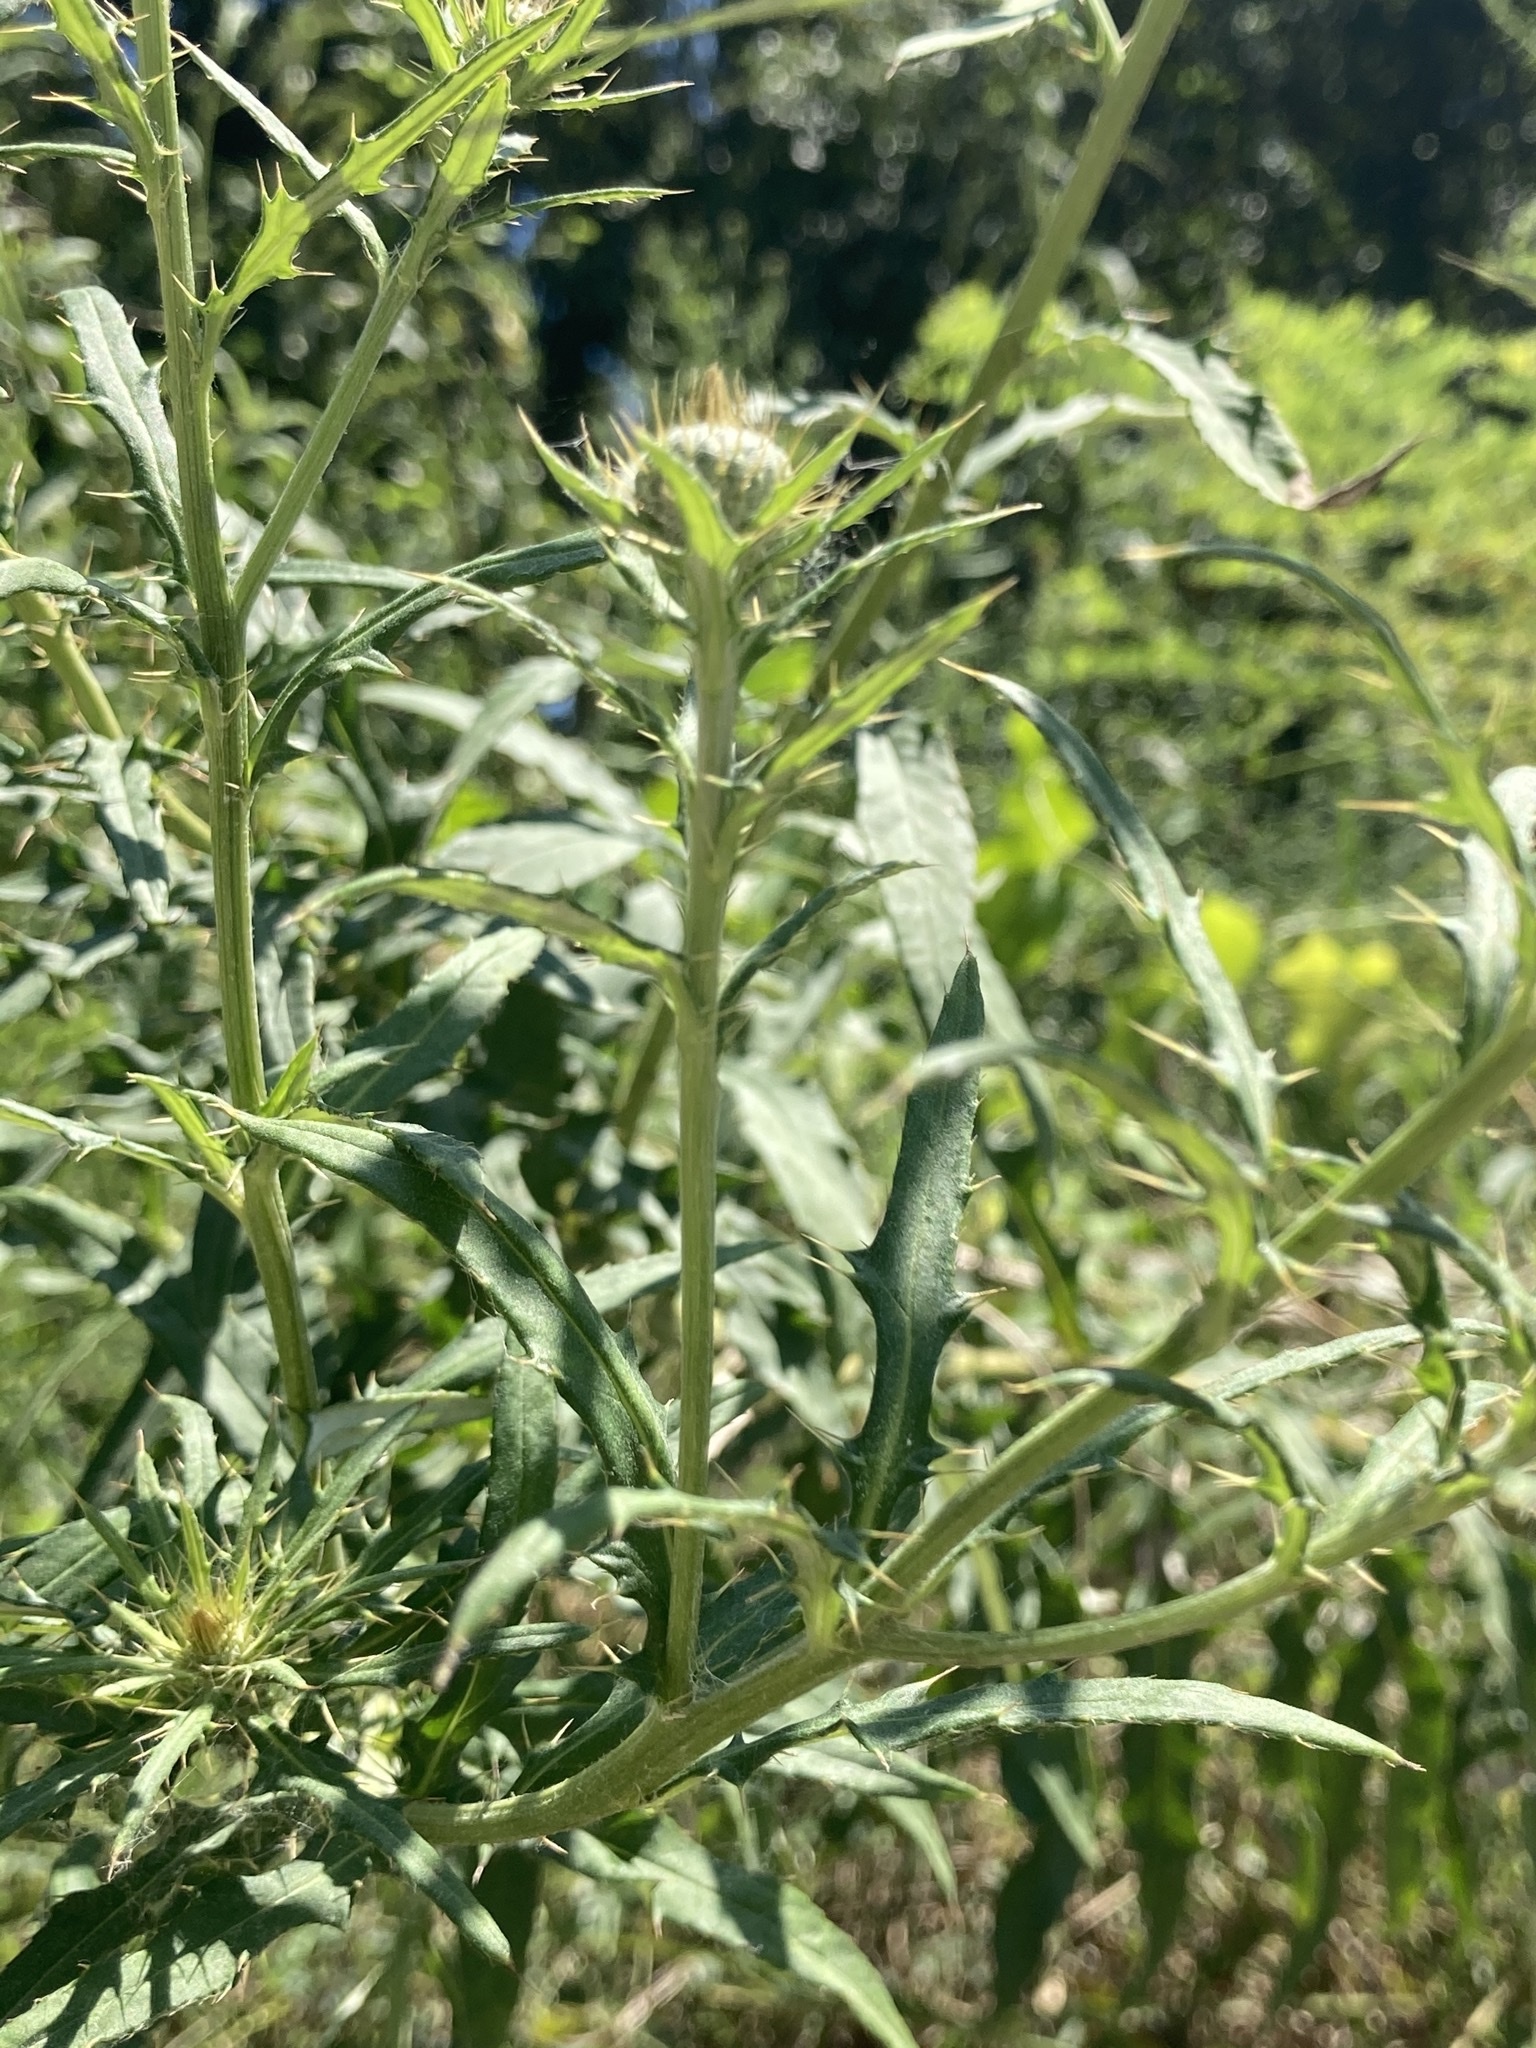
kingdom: Plantae
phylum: Tracheophyta
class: Magnoliopsida
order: Asterales
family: Asteraceae
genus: Cirsium
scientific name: Cirsium altissimum
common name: Roadside thistle
